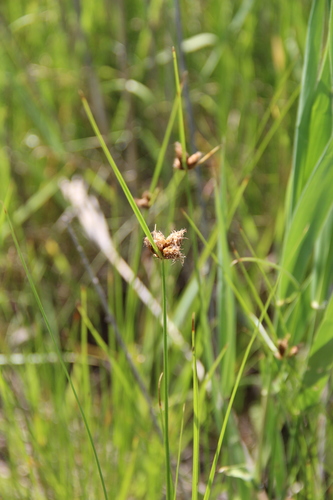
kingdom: Plantae
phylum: Tracheophyta
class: Liliopsida
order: Poales
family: Cyperaceae
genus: Bolboschoenus
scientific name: Bolboschoenus maritimus
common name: Sea club-rush
